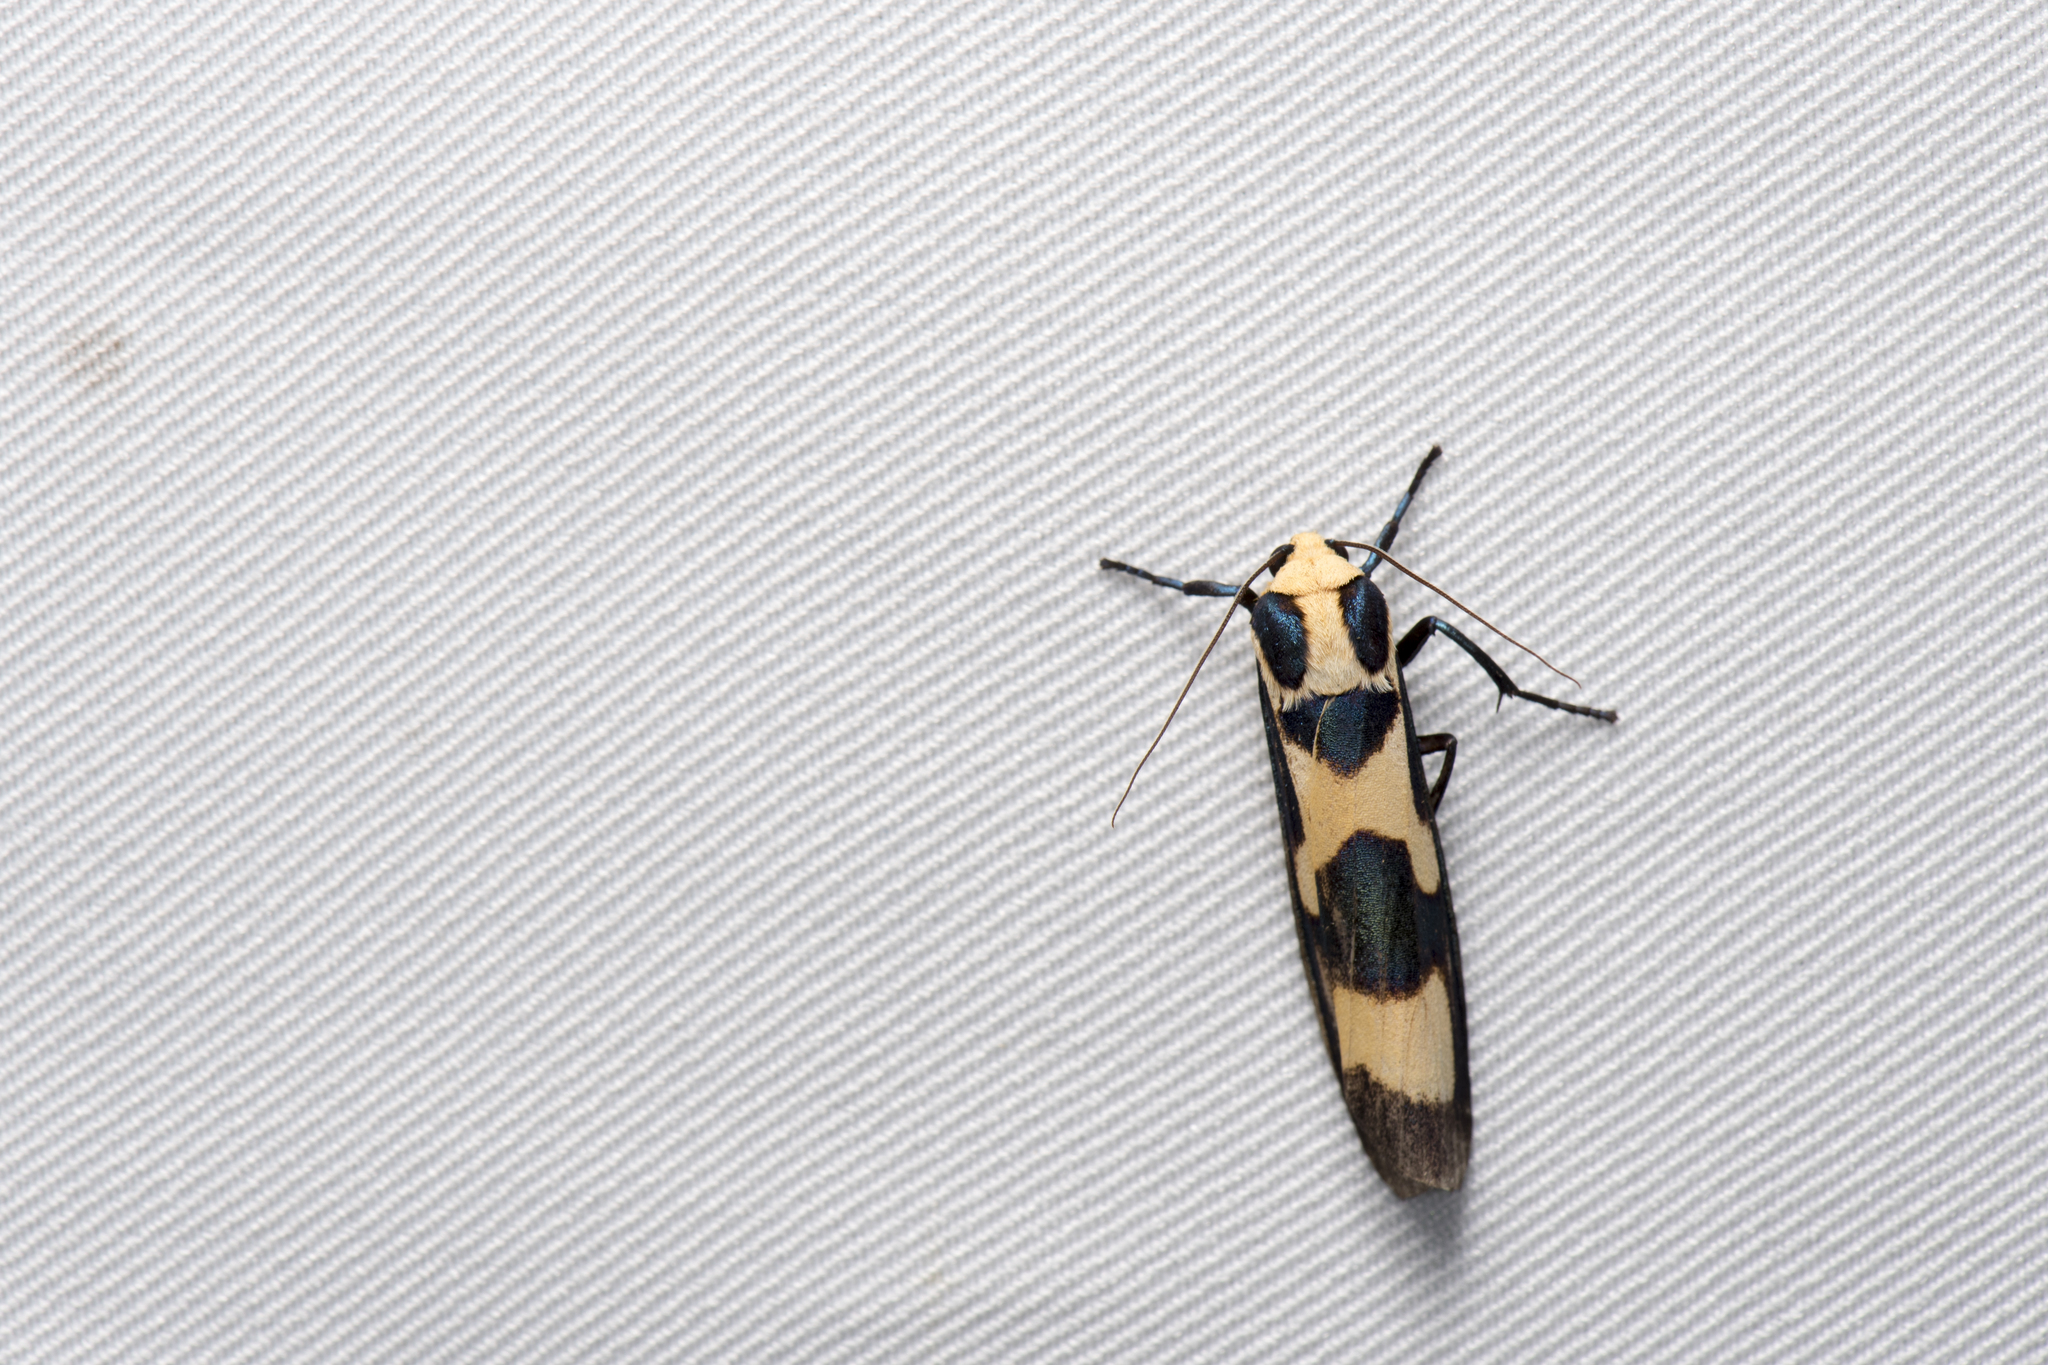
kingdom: Animalia
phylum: Arthropoda
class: Insecta
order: Lepidoptera
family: Erebidae
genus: Chrysaeglia
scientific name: Chrysaeglia magnifica
